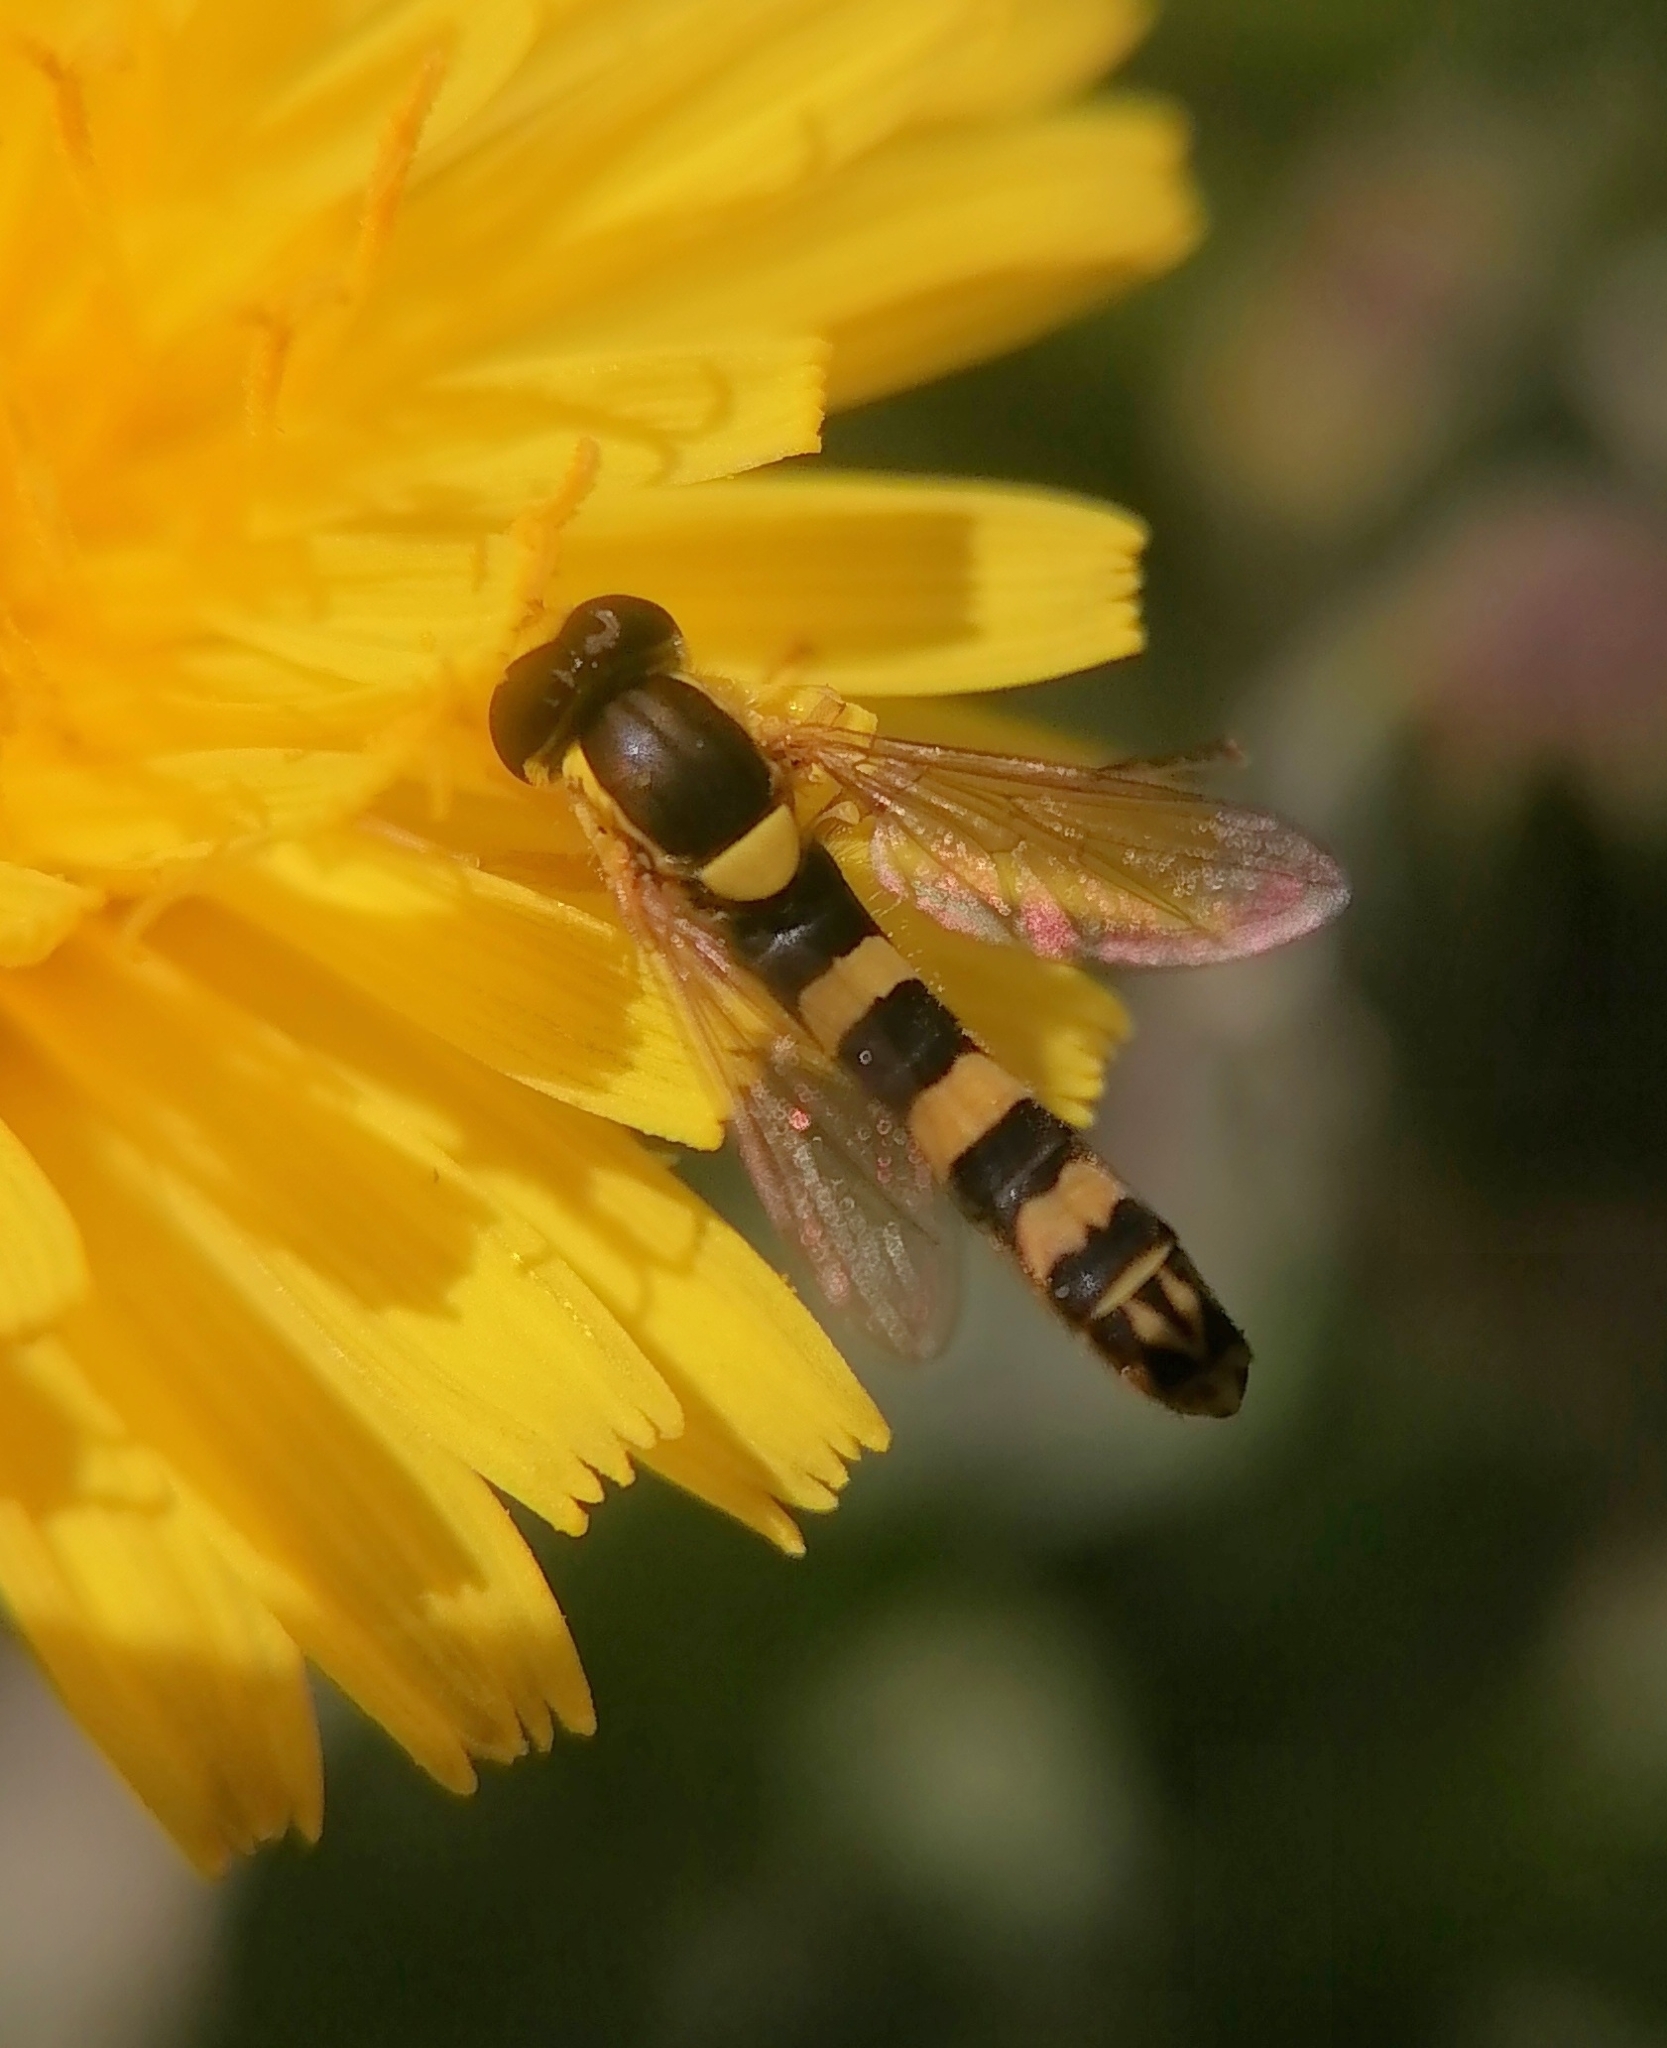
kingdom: Animalia
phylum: Arthropoda
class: Insecta
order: Diptera
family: Syrphidae
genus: Sphaerophoria
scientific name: Sphaerophoria scripta
